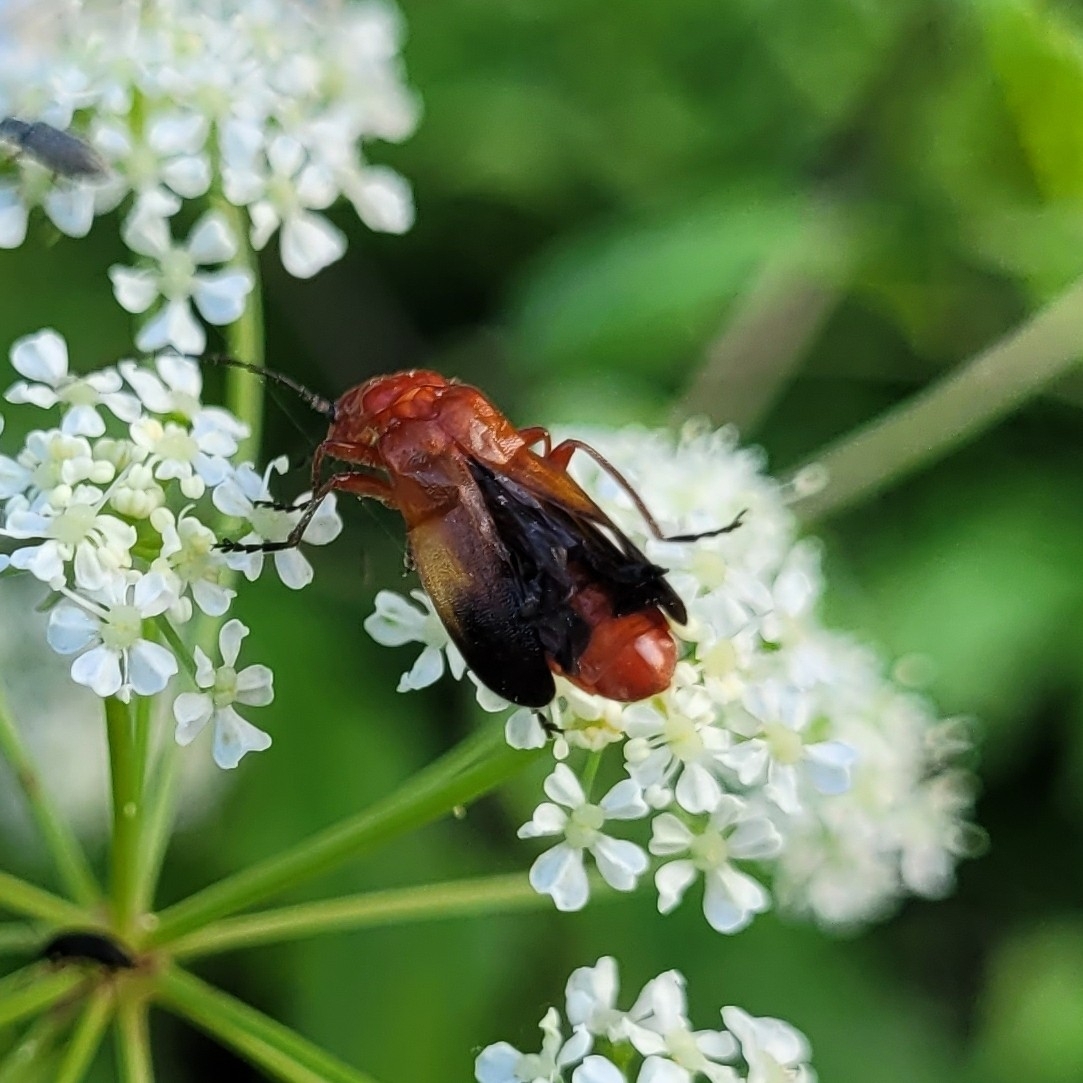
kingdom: Animalia
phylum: Arthropoda
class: Insecta
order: Coleoptera
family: Cantharidae
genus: Rhagonycha
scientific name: Rhagonycha fulva
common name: Common red soldier beetle
